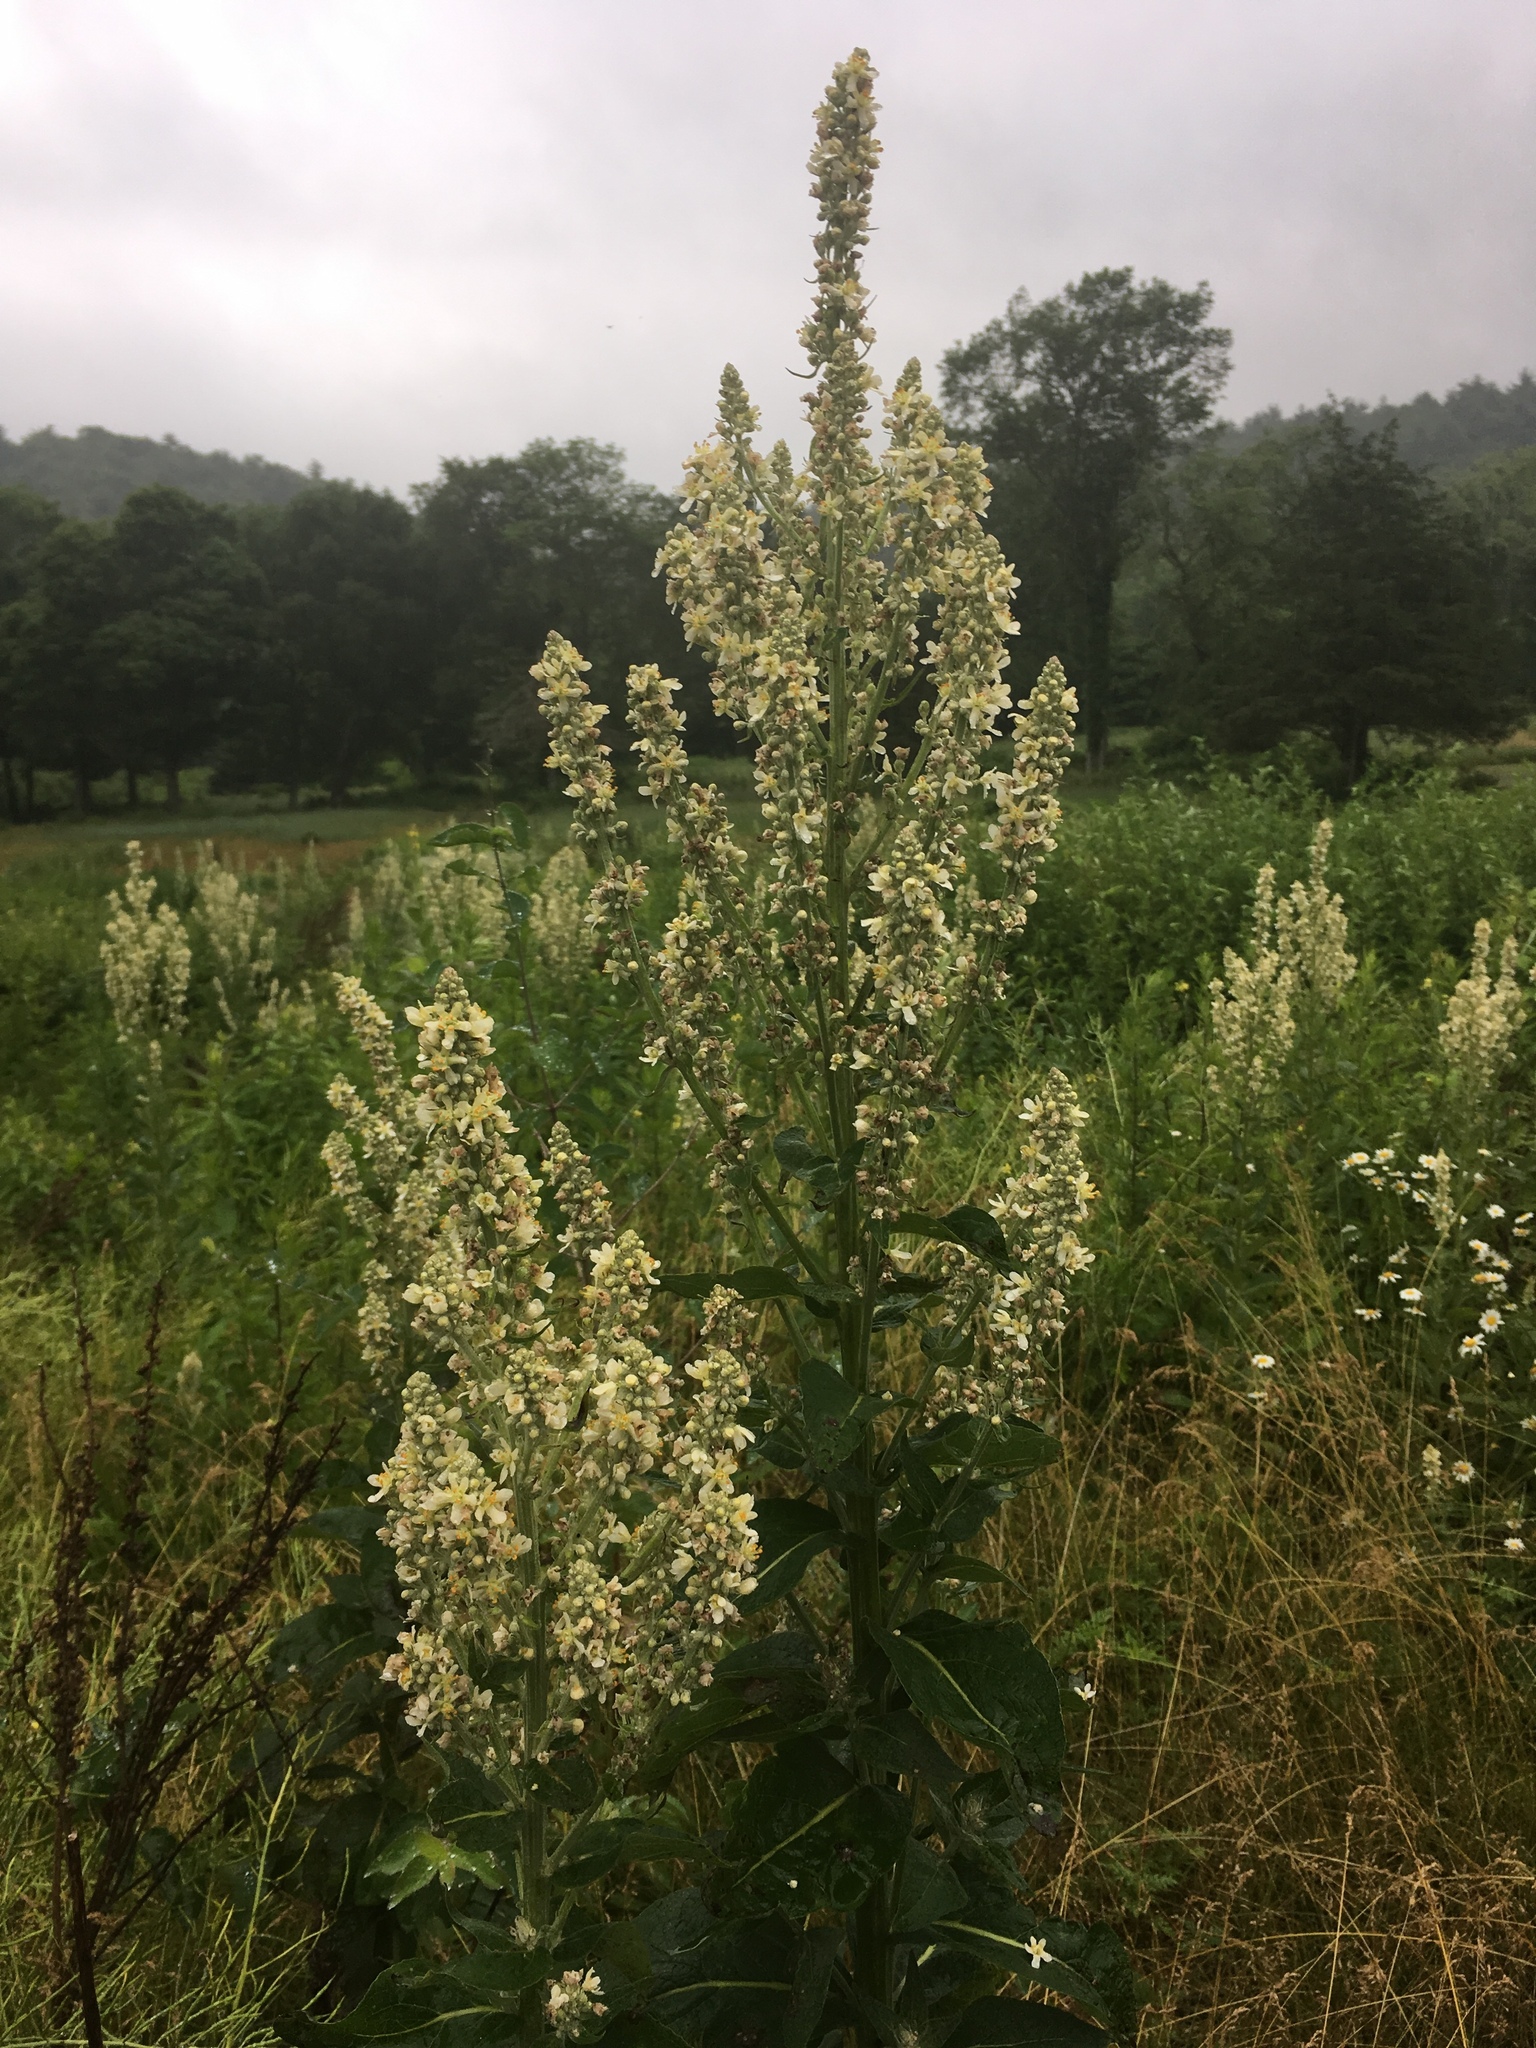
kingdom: Plantae
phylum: Tracheophyta
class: Magnoliopsida
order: Lamiales
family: Scrophulariaceae
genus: Verbascum
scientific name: Verbascum lychnitis
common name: White mullein
